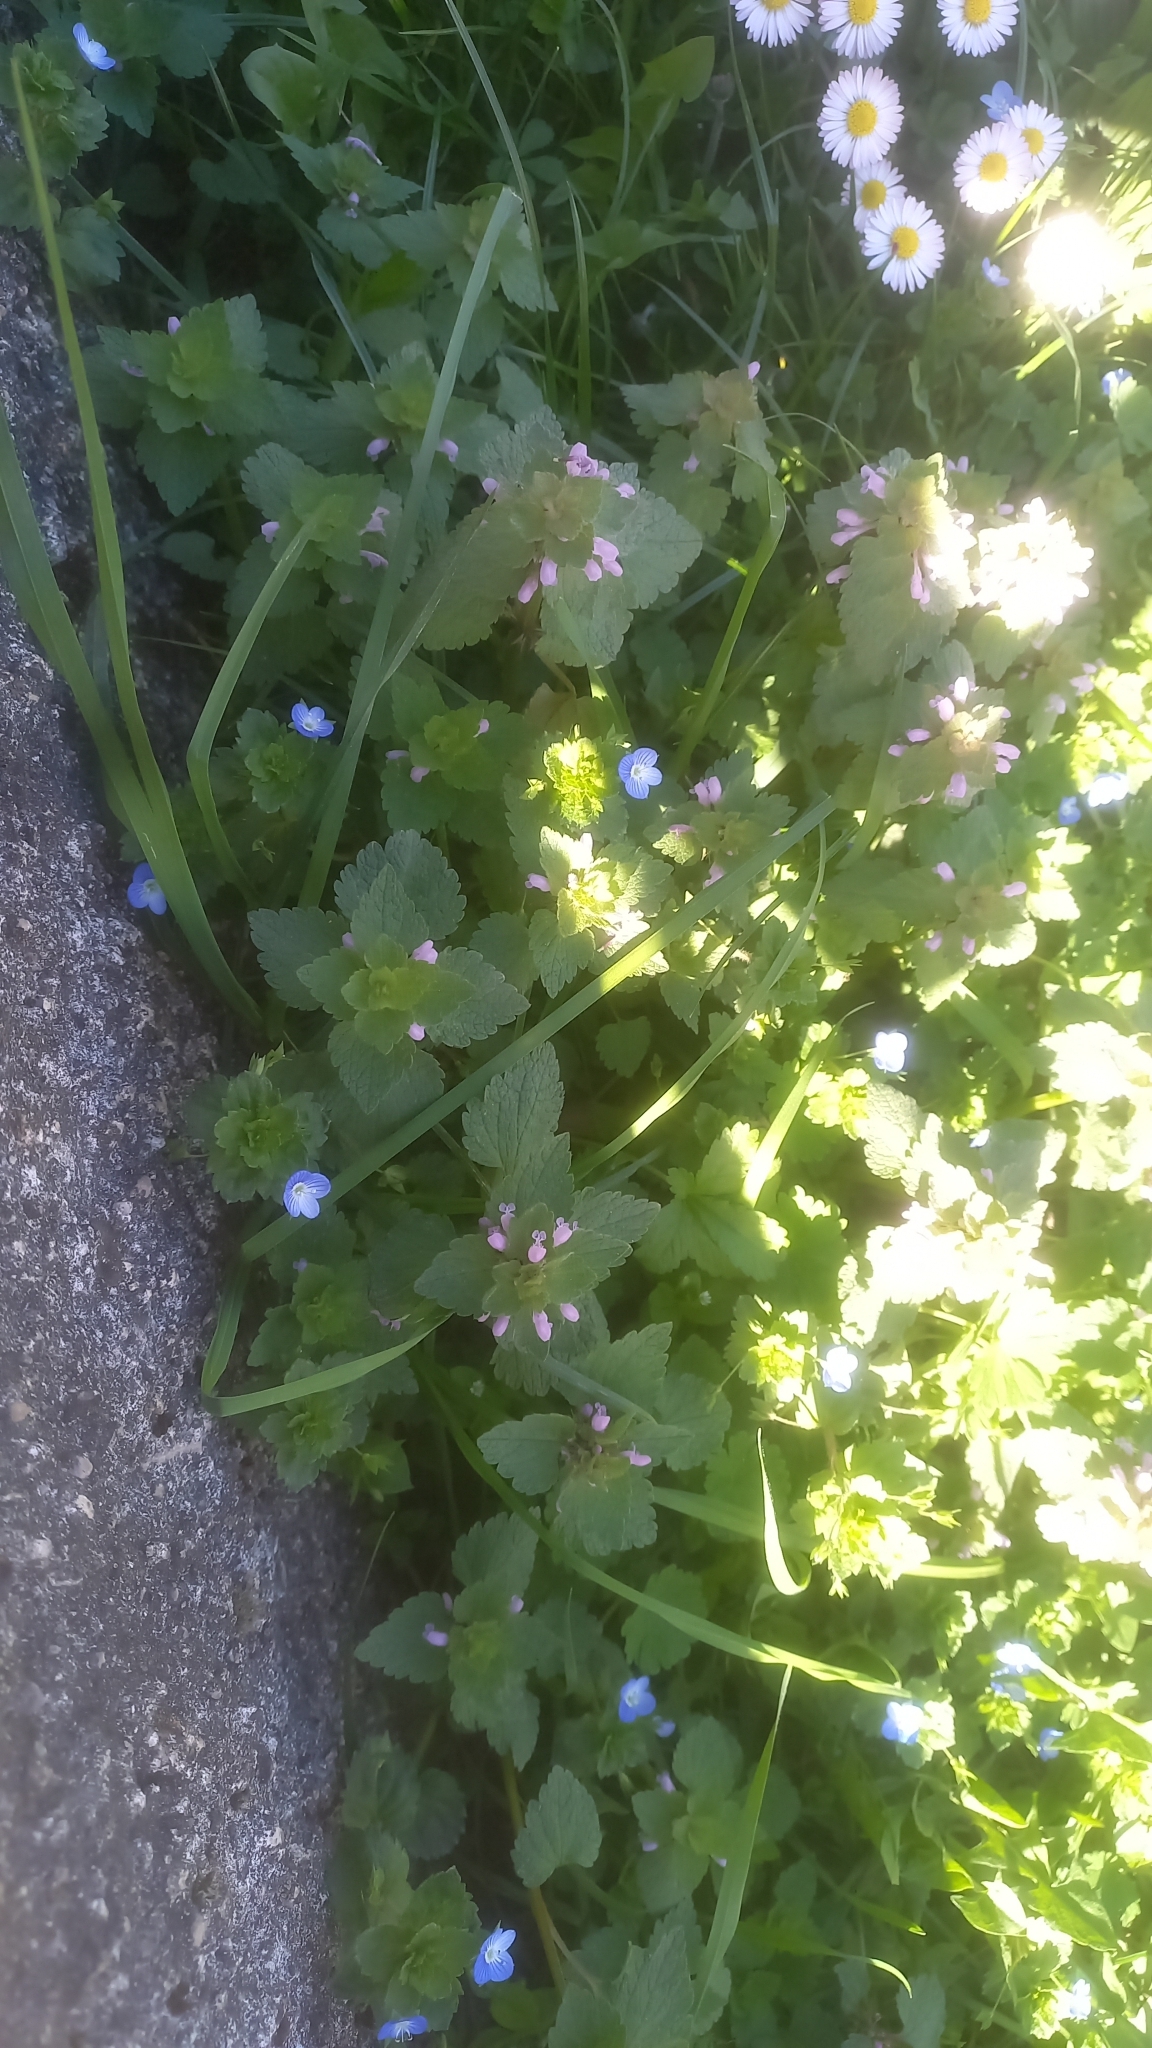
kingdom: Plantae
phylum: Tracheophyta
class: Magnoliopsida
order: Lamiales
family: Lamiaceae
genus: Lamium
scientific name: Lamium purpureum
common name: Red dead-nettle
